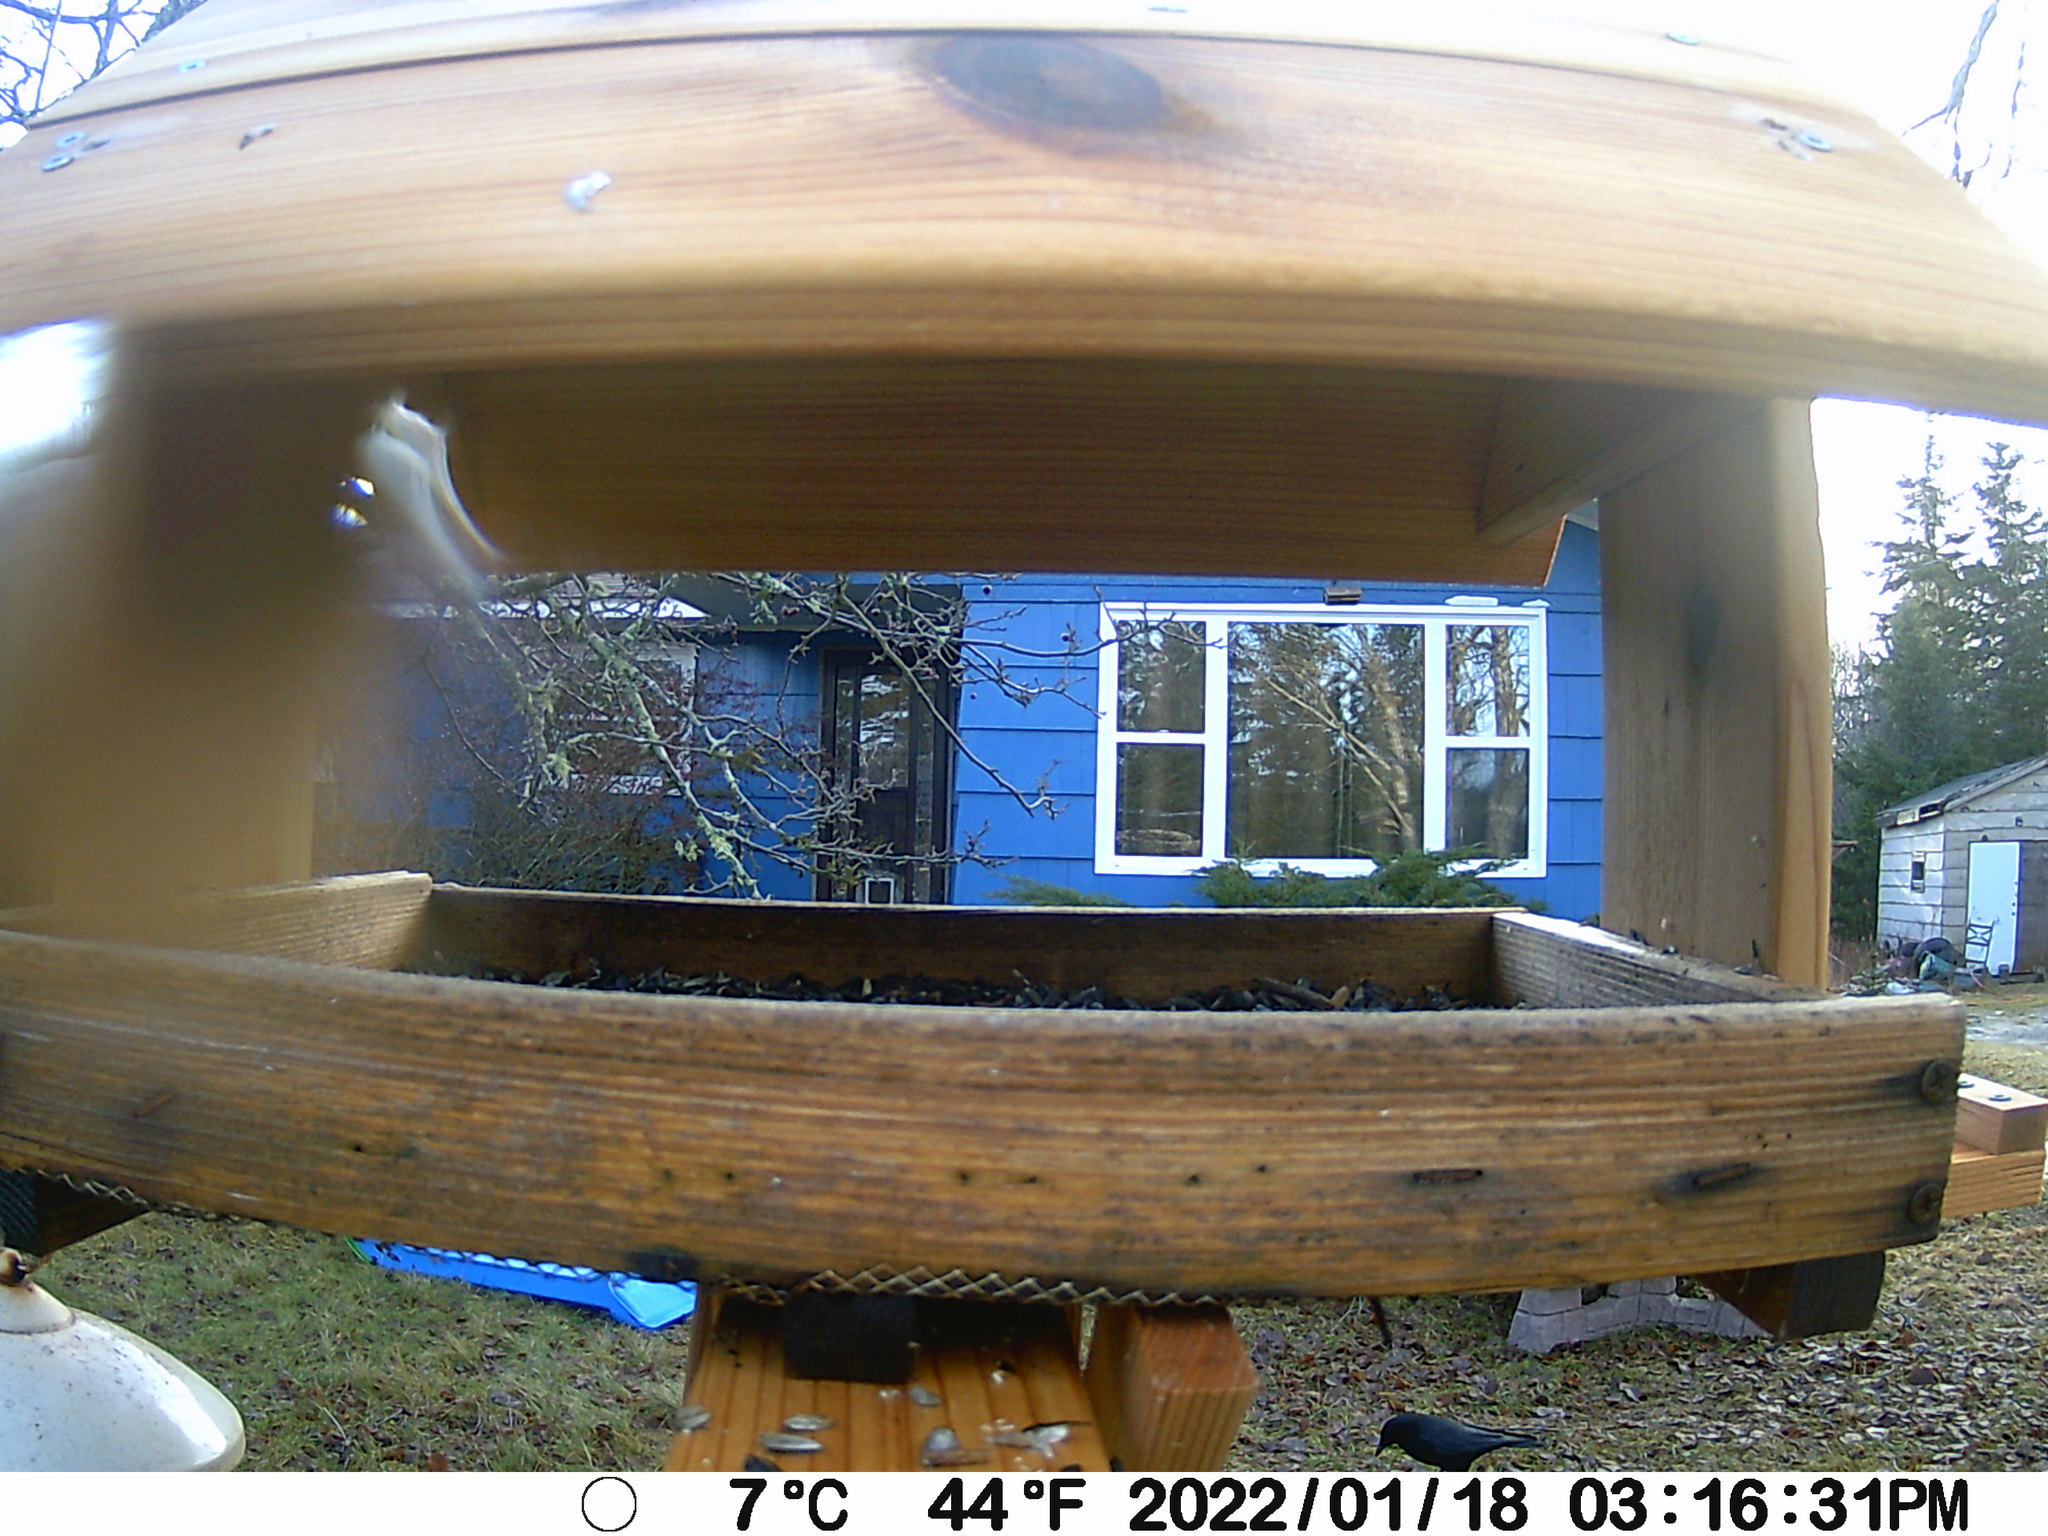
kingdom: Animalia
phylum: Chordata
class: Aves
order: Passeriformes
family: Corvidae
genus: Corvus
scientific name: Corvus brachyrhynchos
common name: American crow
